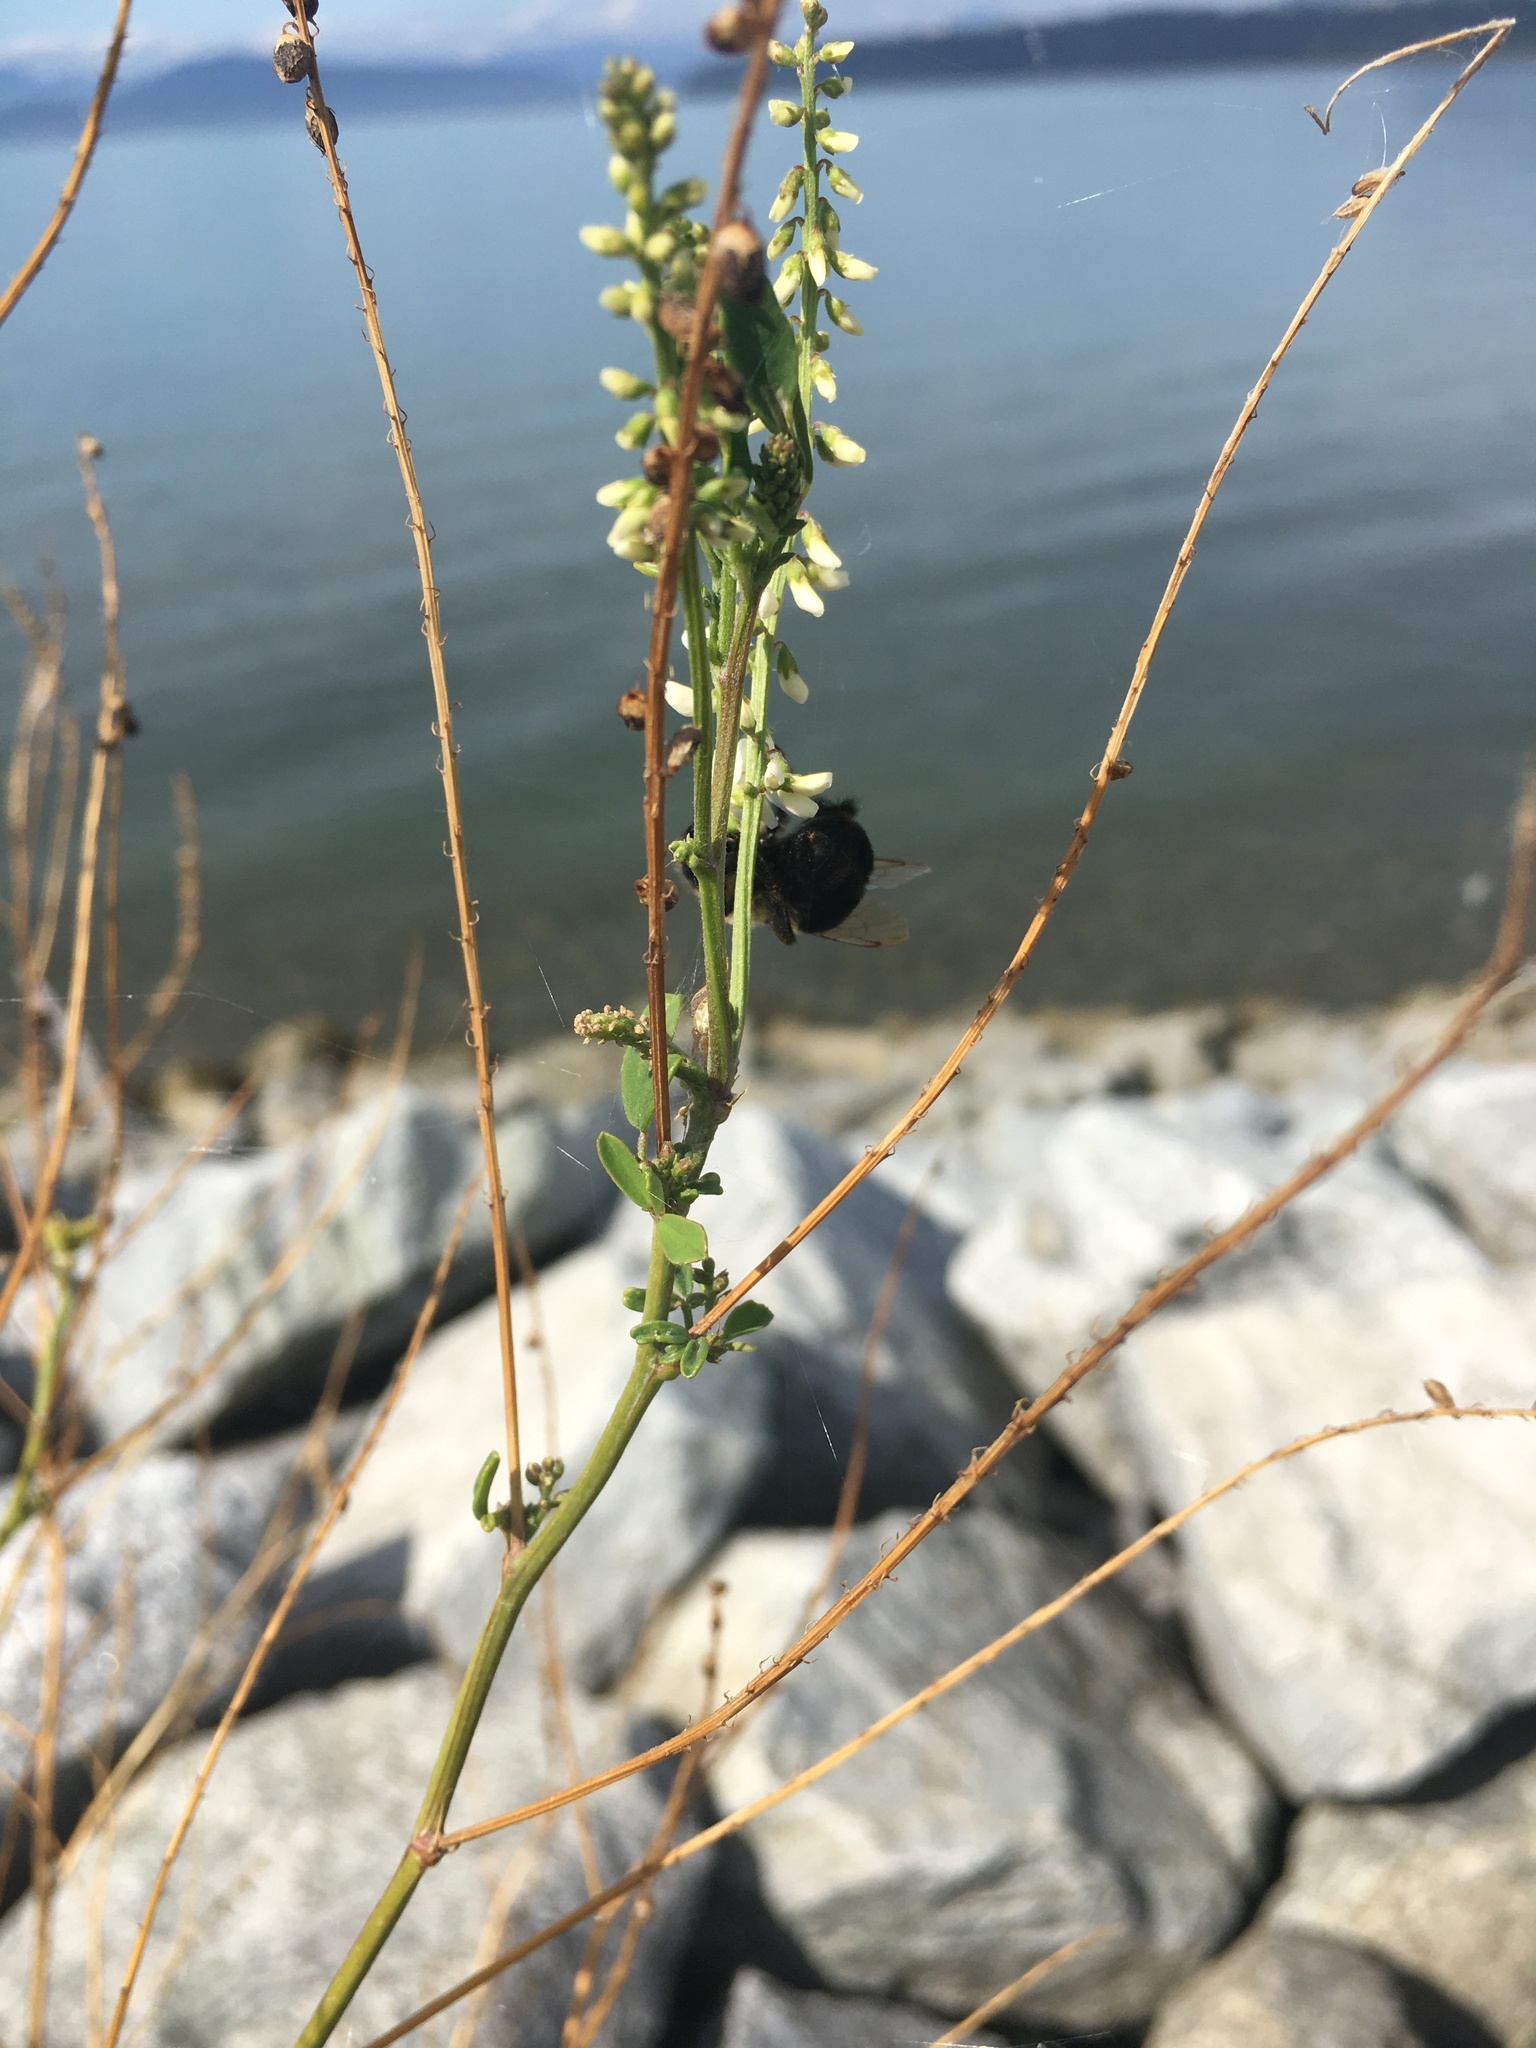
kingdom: Plantae
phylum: Tracheophyta
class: Magnoliopsida
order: Fabales
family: Fabaceae
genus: Melilotus
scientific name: Melilotus albus
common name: White melilot
